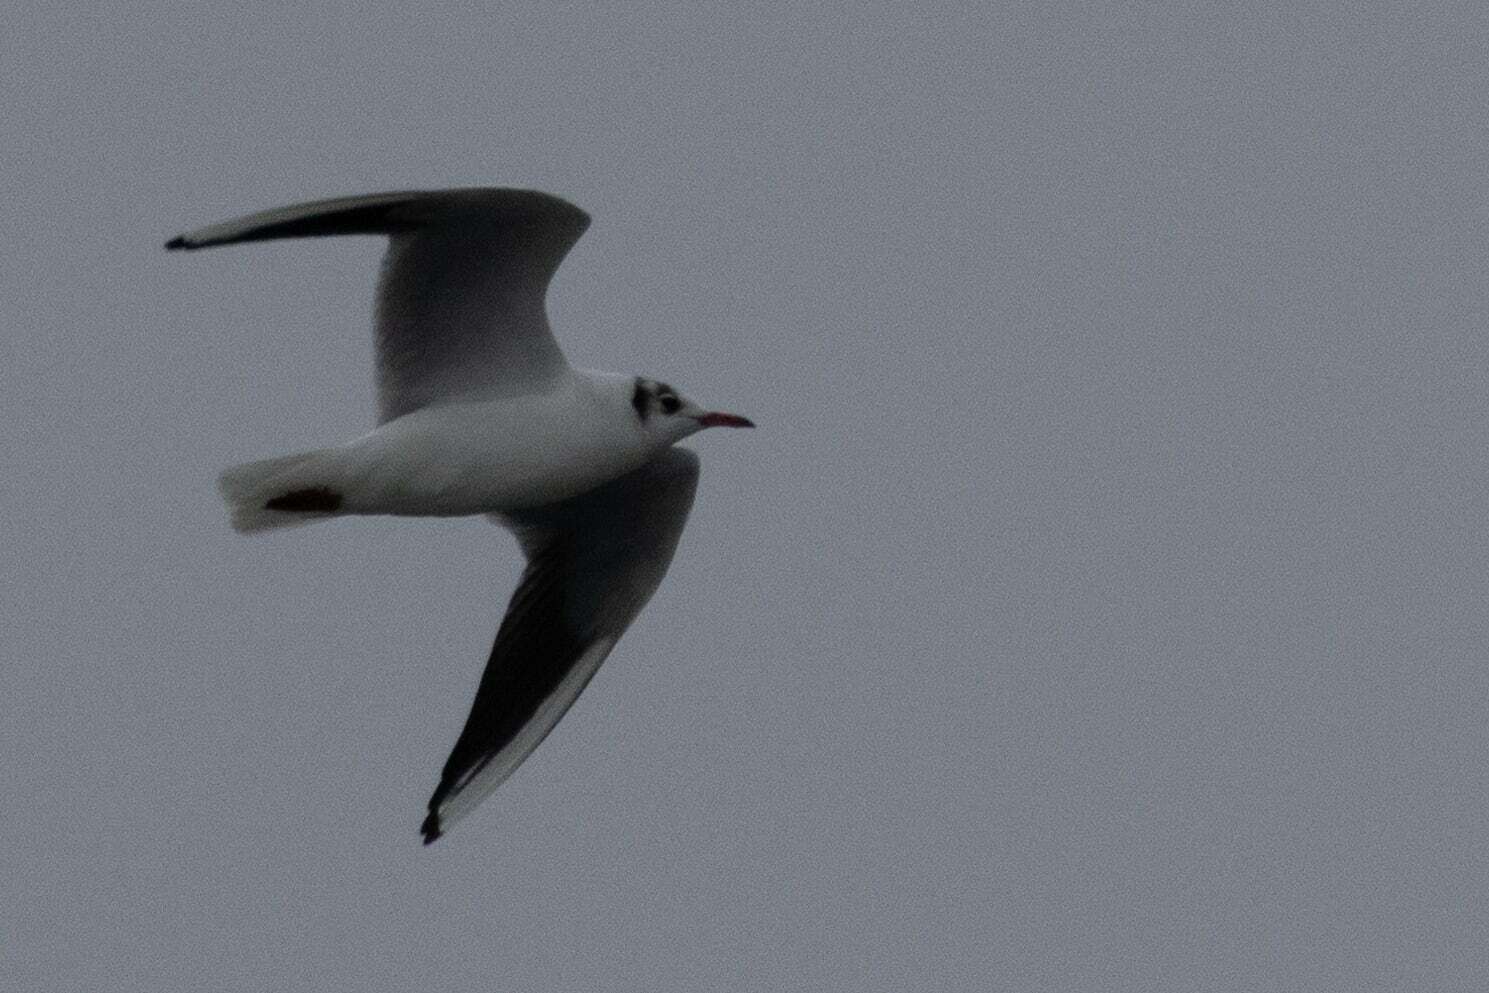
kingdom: Animalia
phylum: Chordata
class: Aves
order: Charadriiformes
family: Laridae
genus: Chroicocephalus
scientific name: Chroicocephalus ridibundus
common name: Black-headed gull
